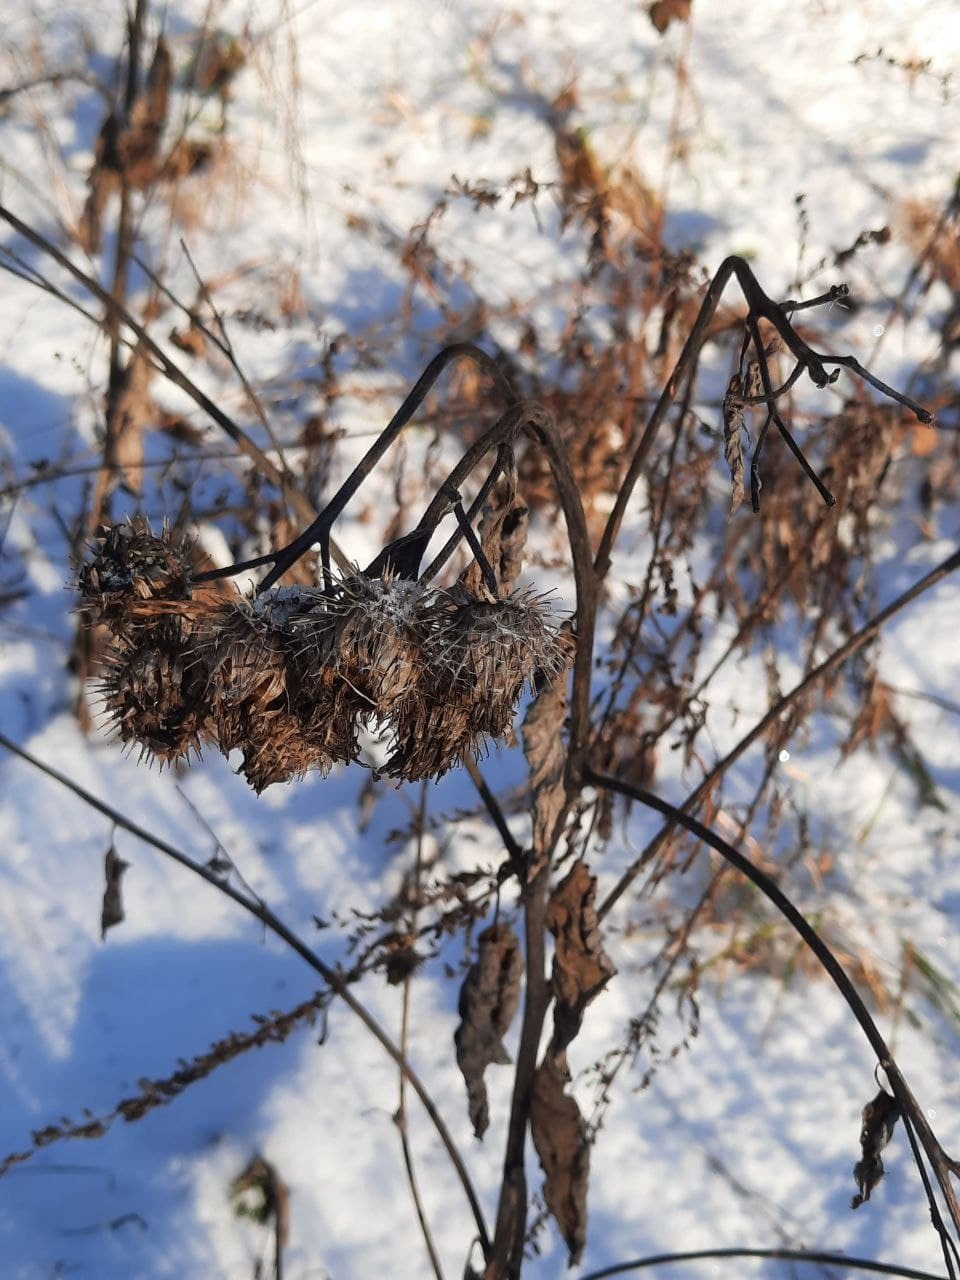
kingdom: Plantae
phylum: Tracheophyta
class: Magnoliopsida
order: Asterales
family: Asteraceae
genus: Arctium
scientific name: Arctium tomentosum
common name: Woolly burdock
